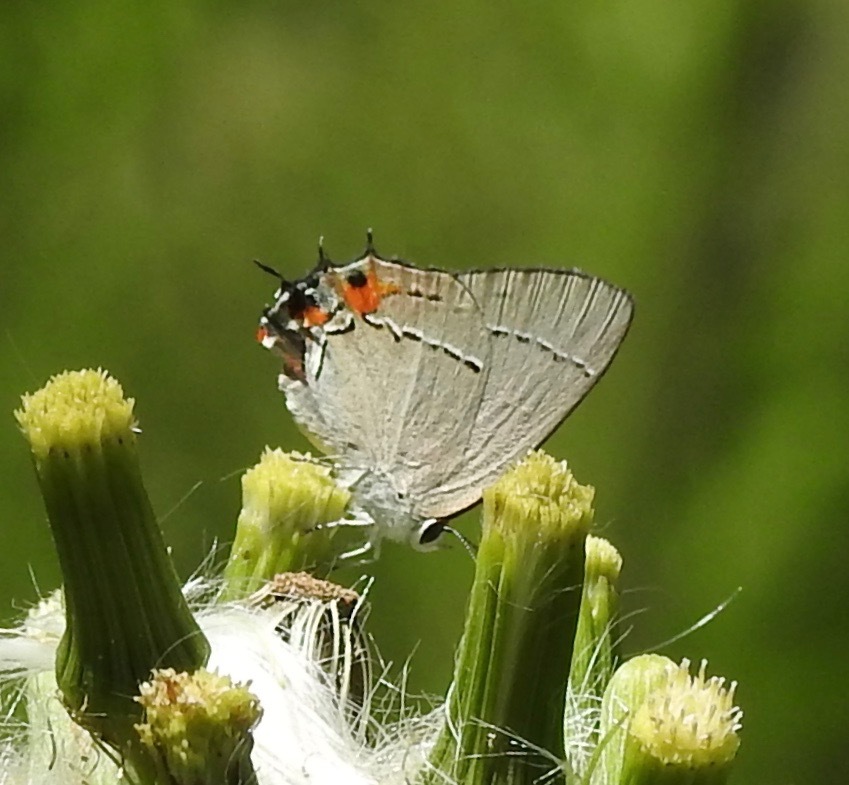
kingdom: Animalia
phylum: Arthropoda
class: Insecta
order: Lepidoptera
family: Lycaenidae
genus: Strymon
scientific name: Strymon melinus
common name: Gray hairstreak
